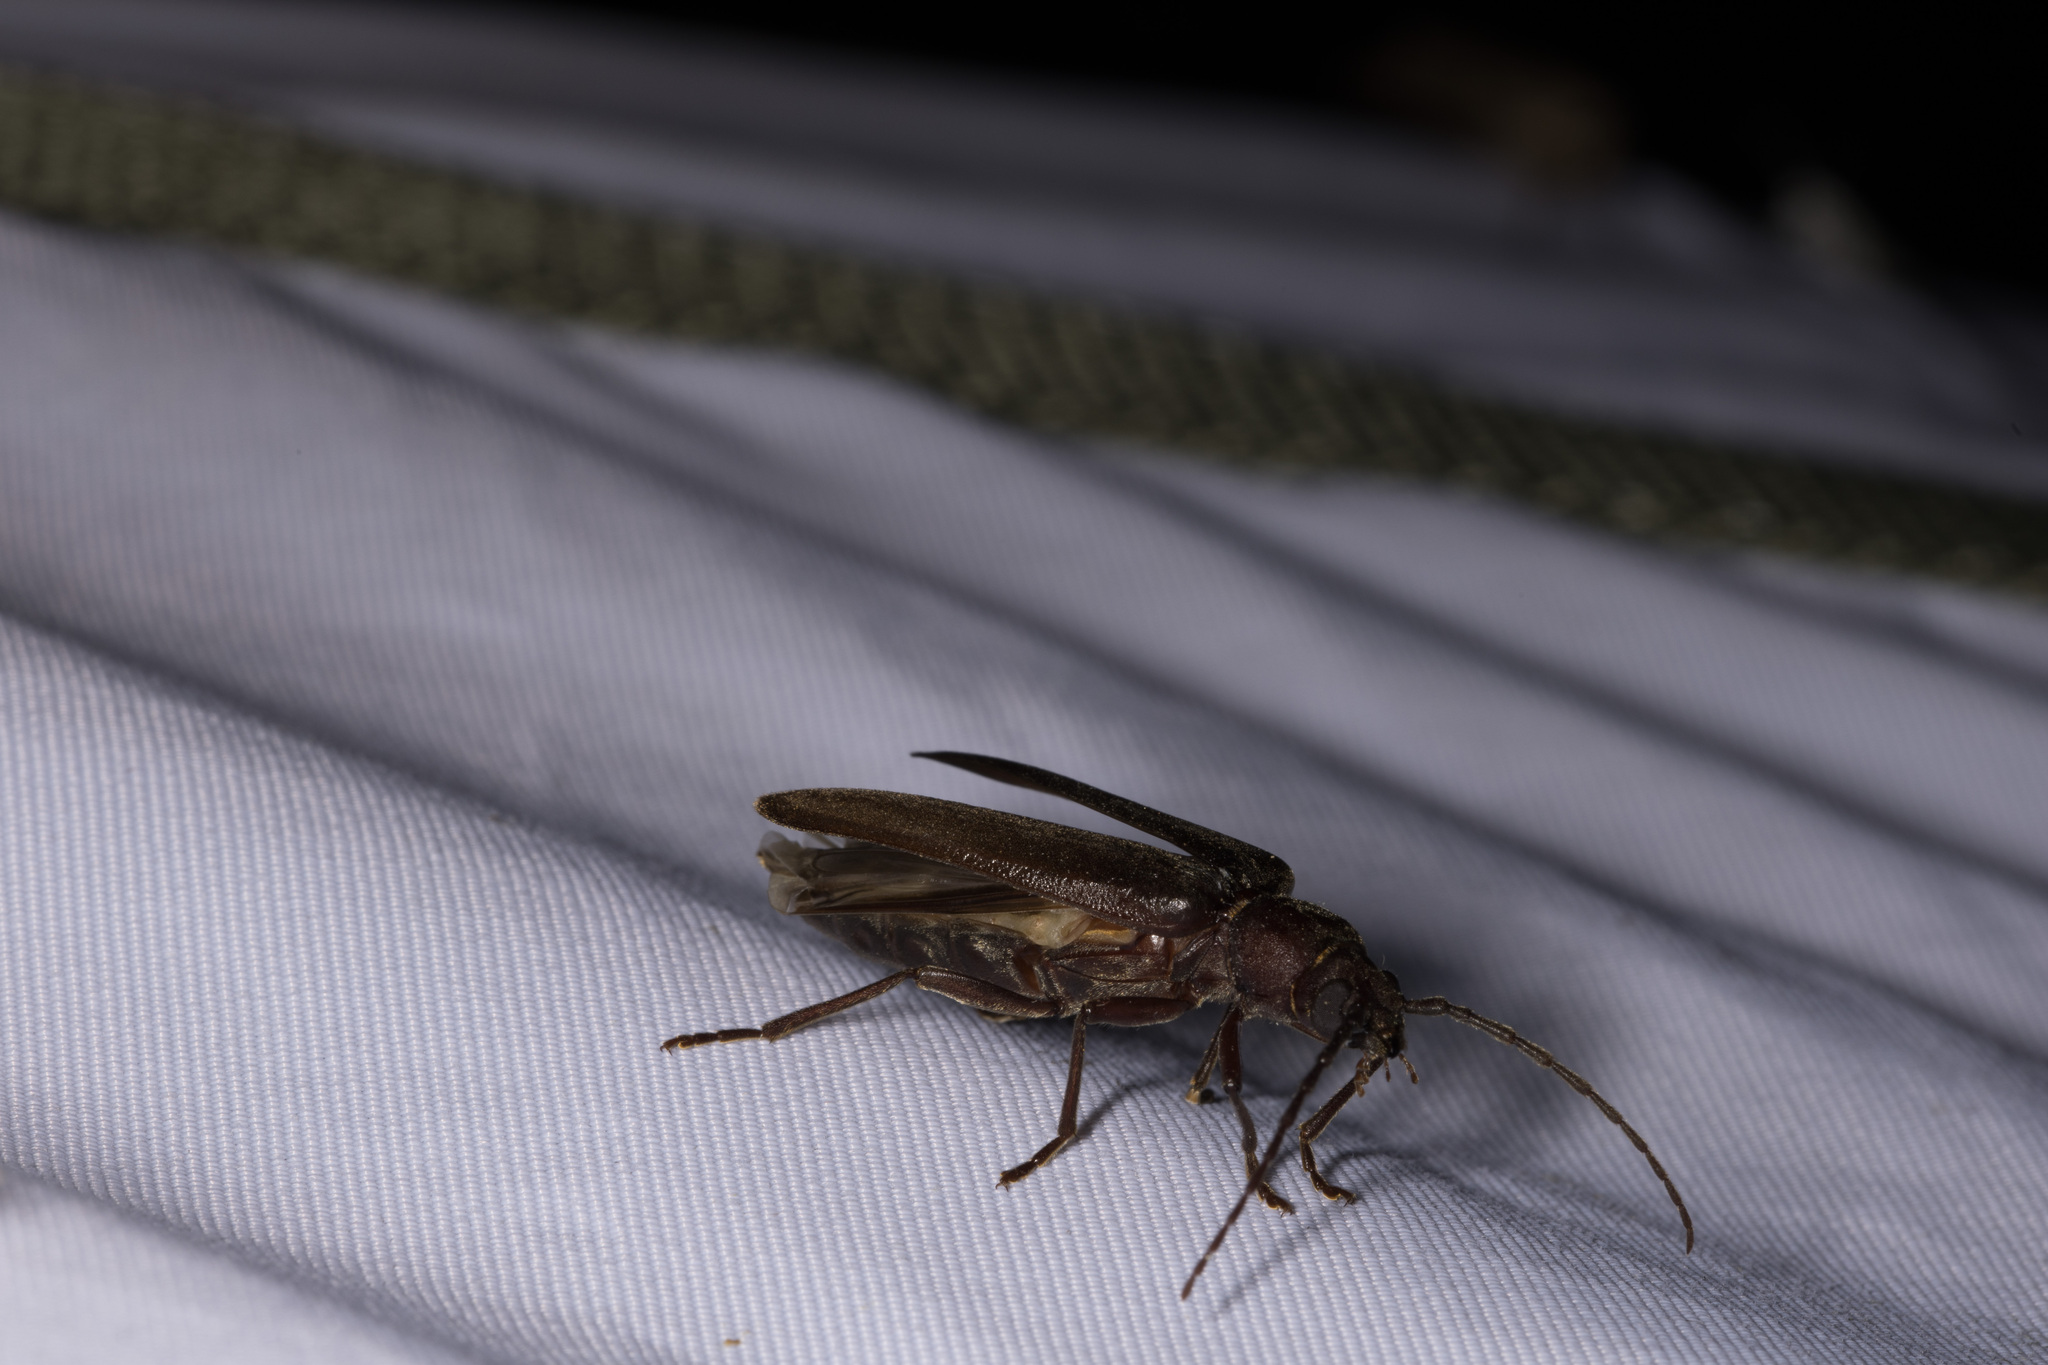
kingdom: Animalia
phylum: Arthropoda
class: Insecta
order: Coleoptera
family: Cerambycidae
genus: Arhopalus
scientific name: Arhopalus rusticus
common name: Rust pine borer
